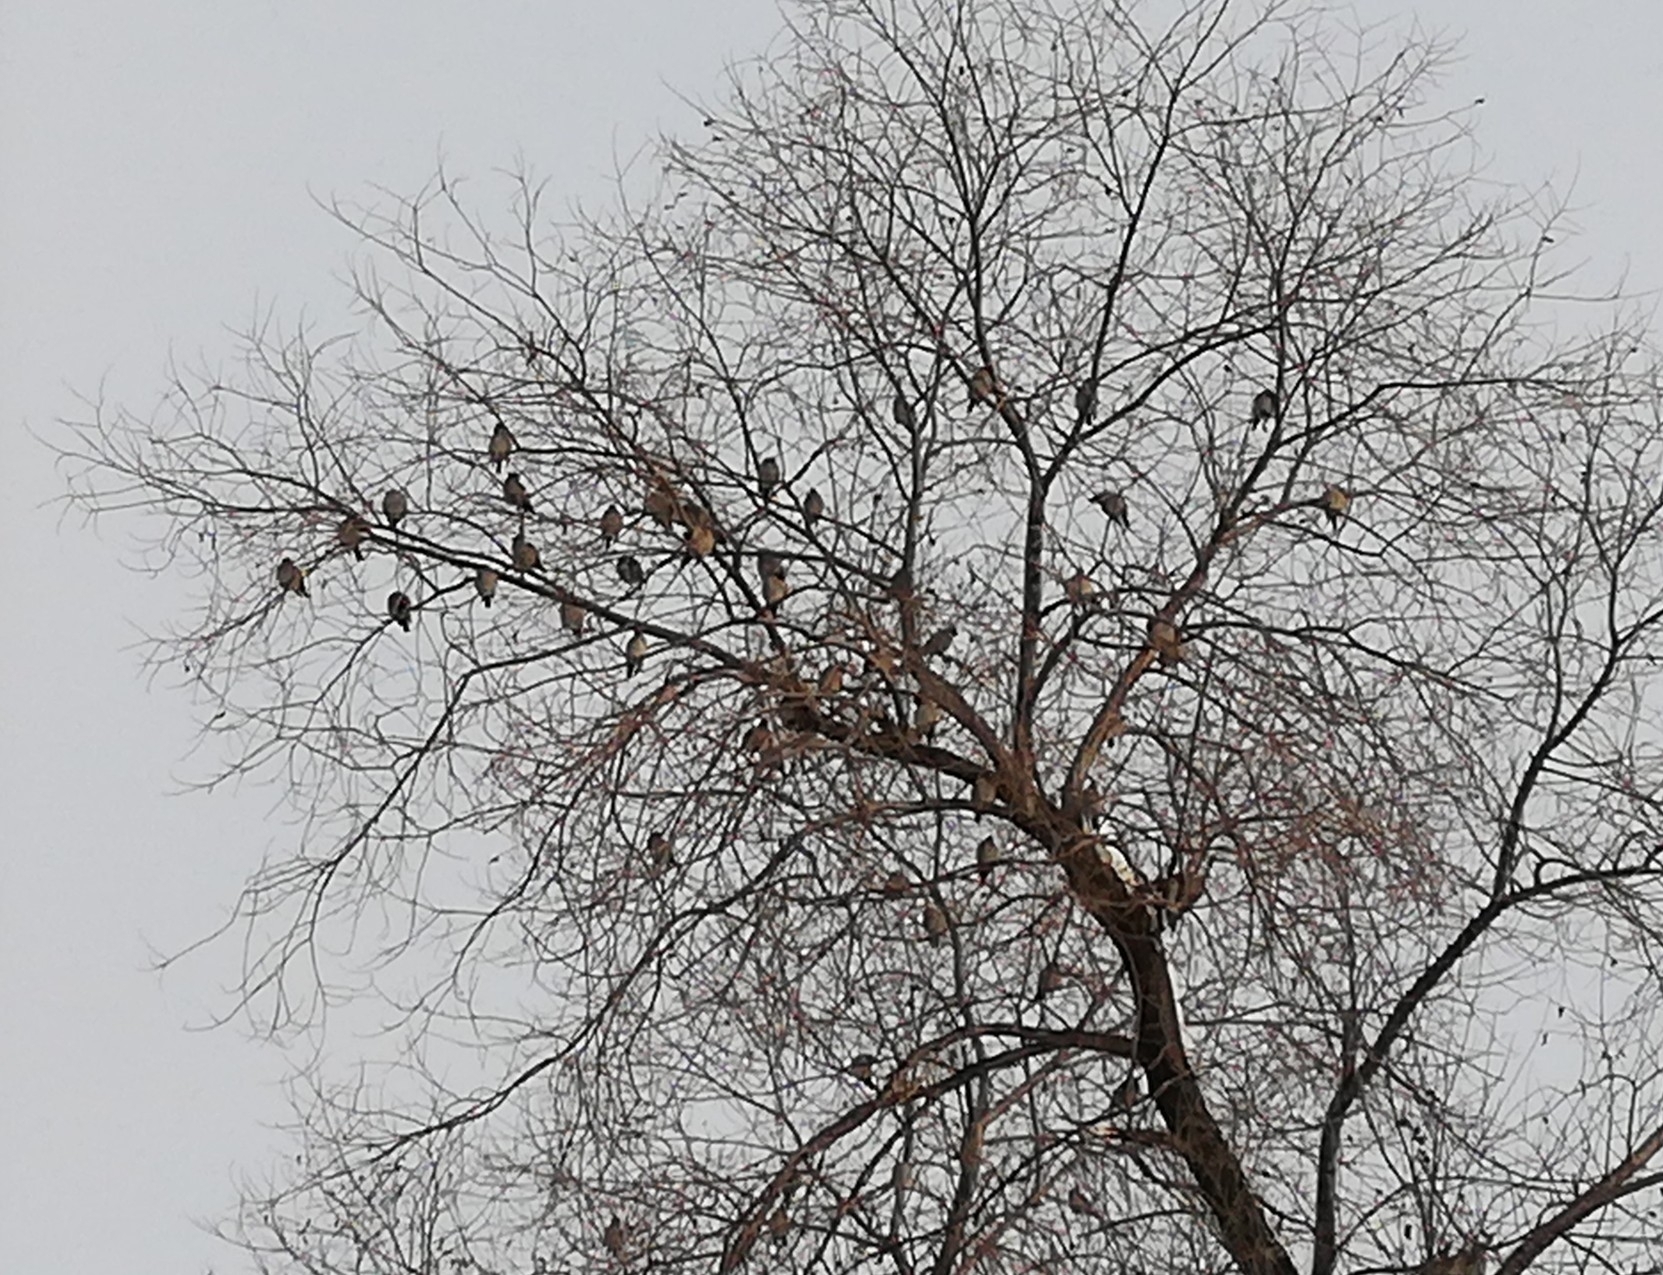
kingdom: Animalia
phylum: Chordata
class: Aves
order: Passeriformes
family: Bombycillidae
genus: Bombycilla
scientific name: Bombycilla garrulus
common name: Bohemian waxwing
